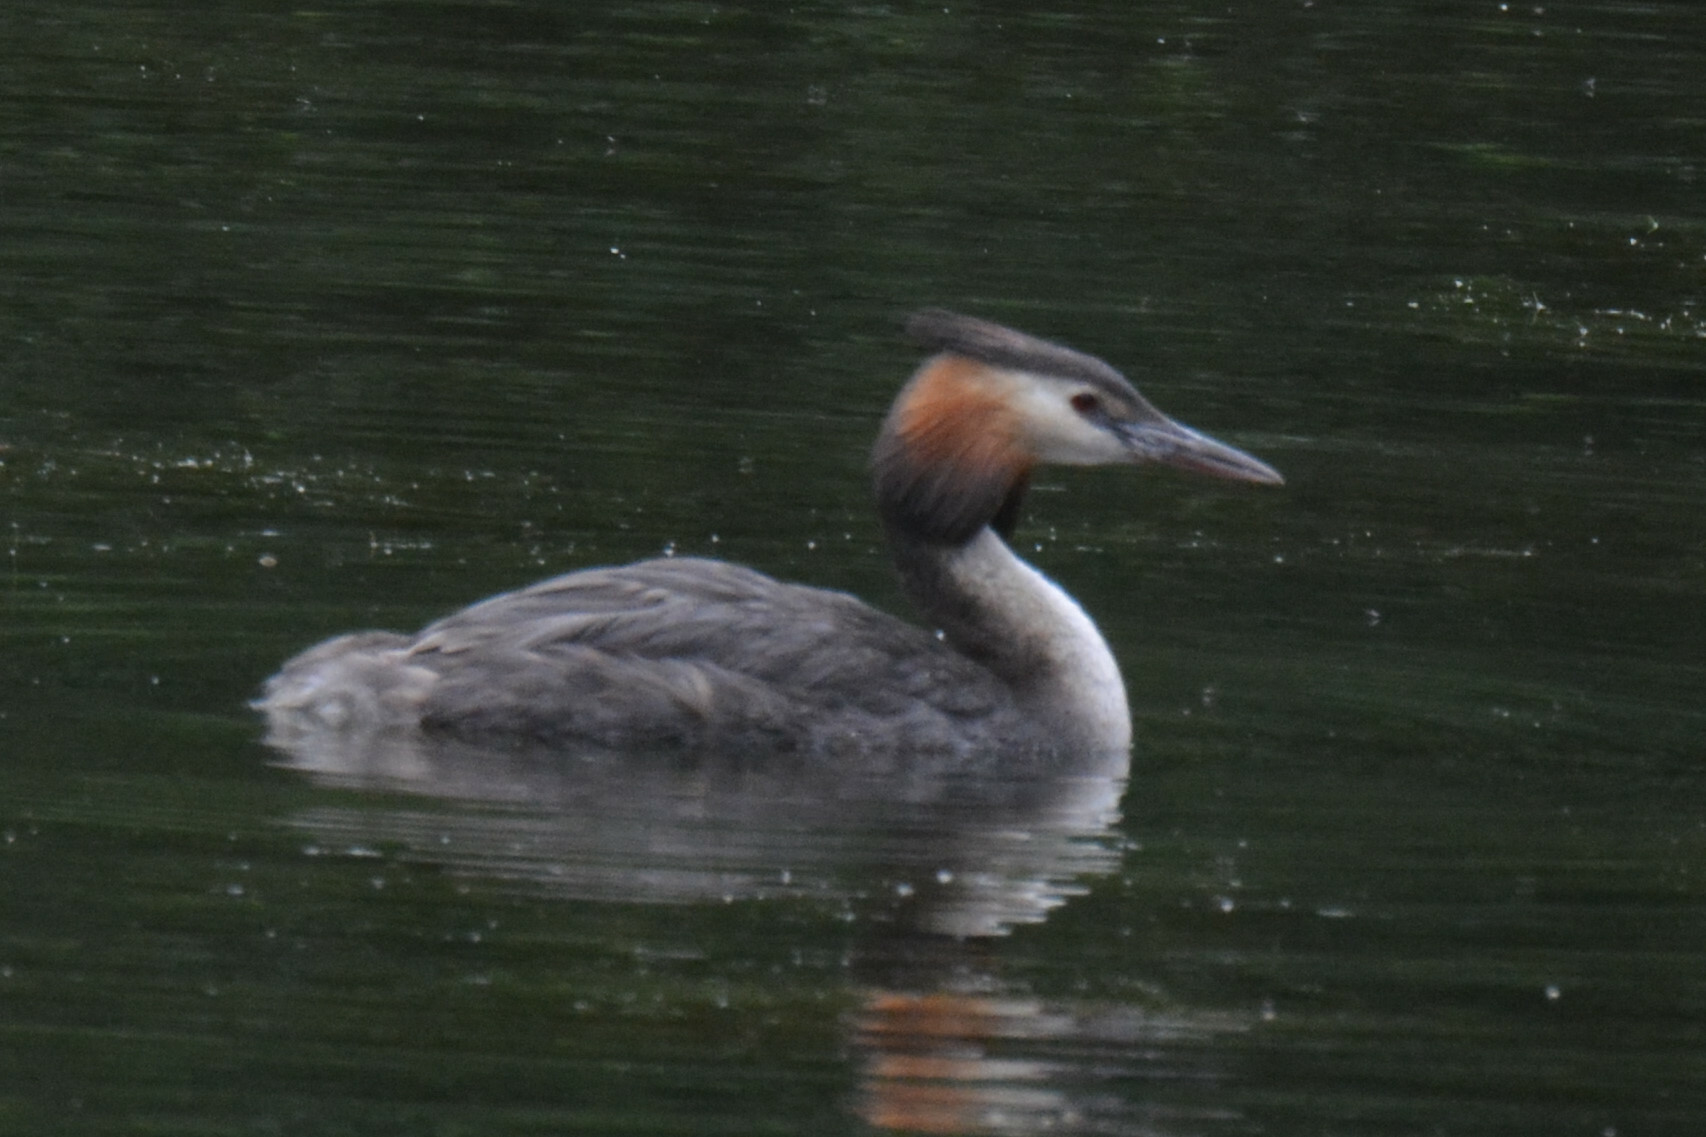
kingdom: Animalia
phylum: Chordata
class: Aves
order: Podicipediformes
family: Podicipedidae
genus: Podiceps
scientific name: Podiceps cristatus
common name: Great crested grebe
